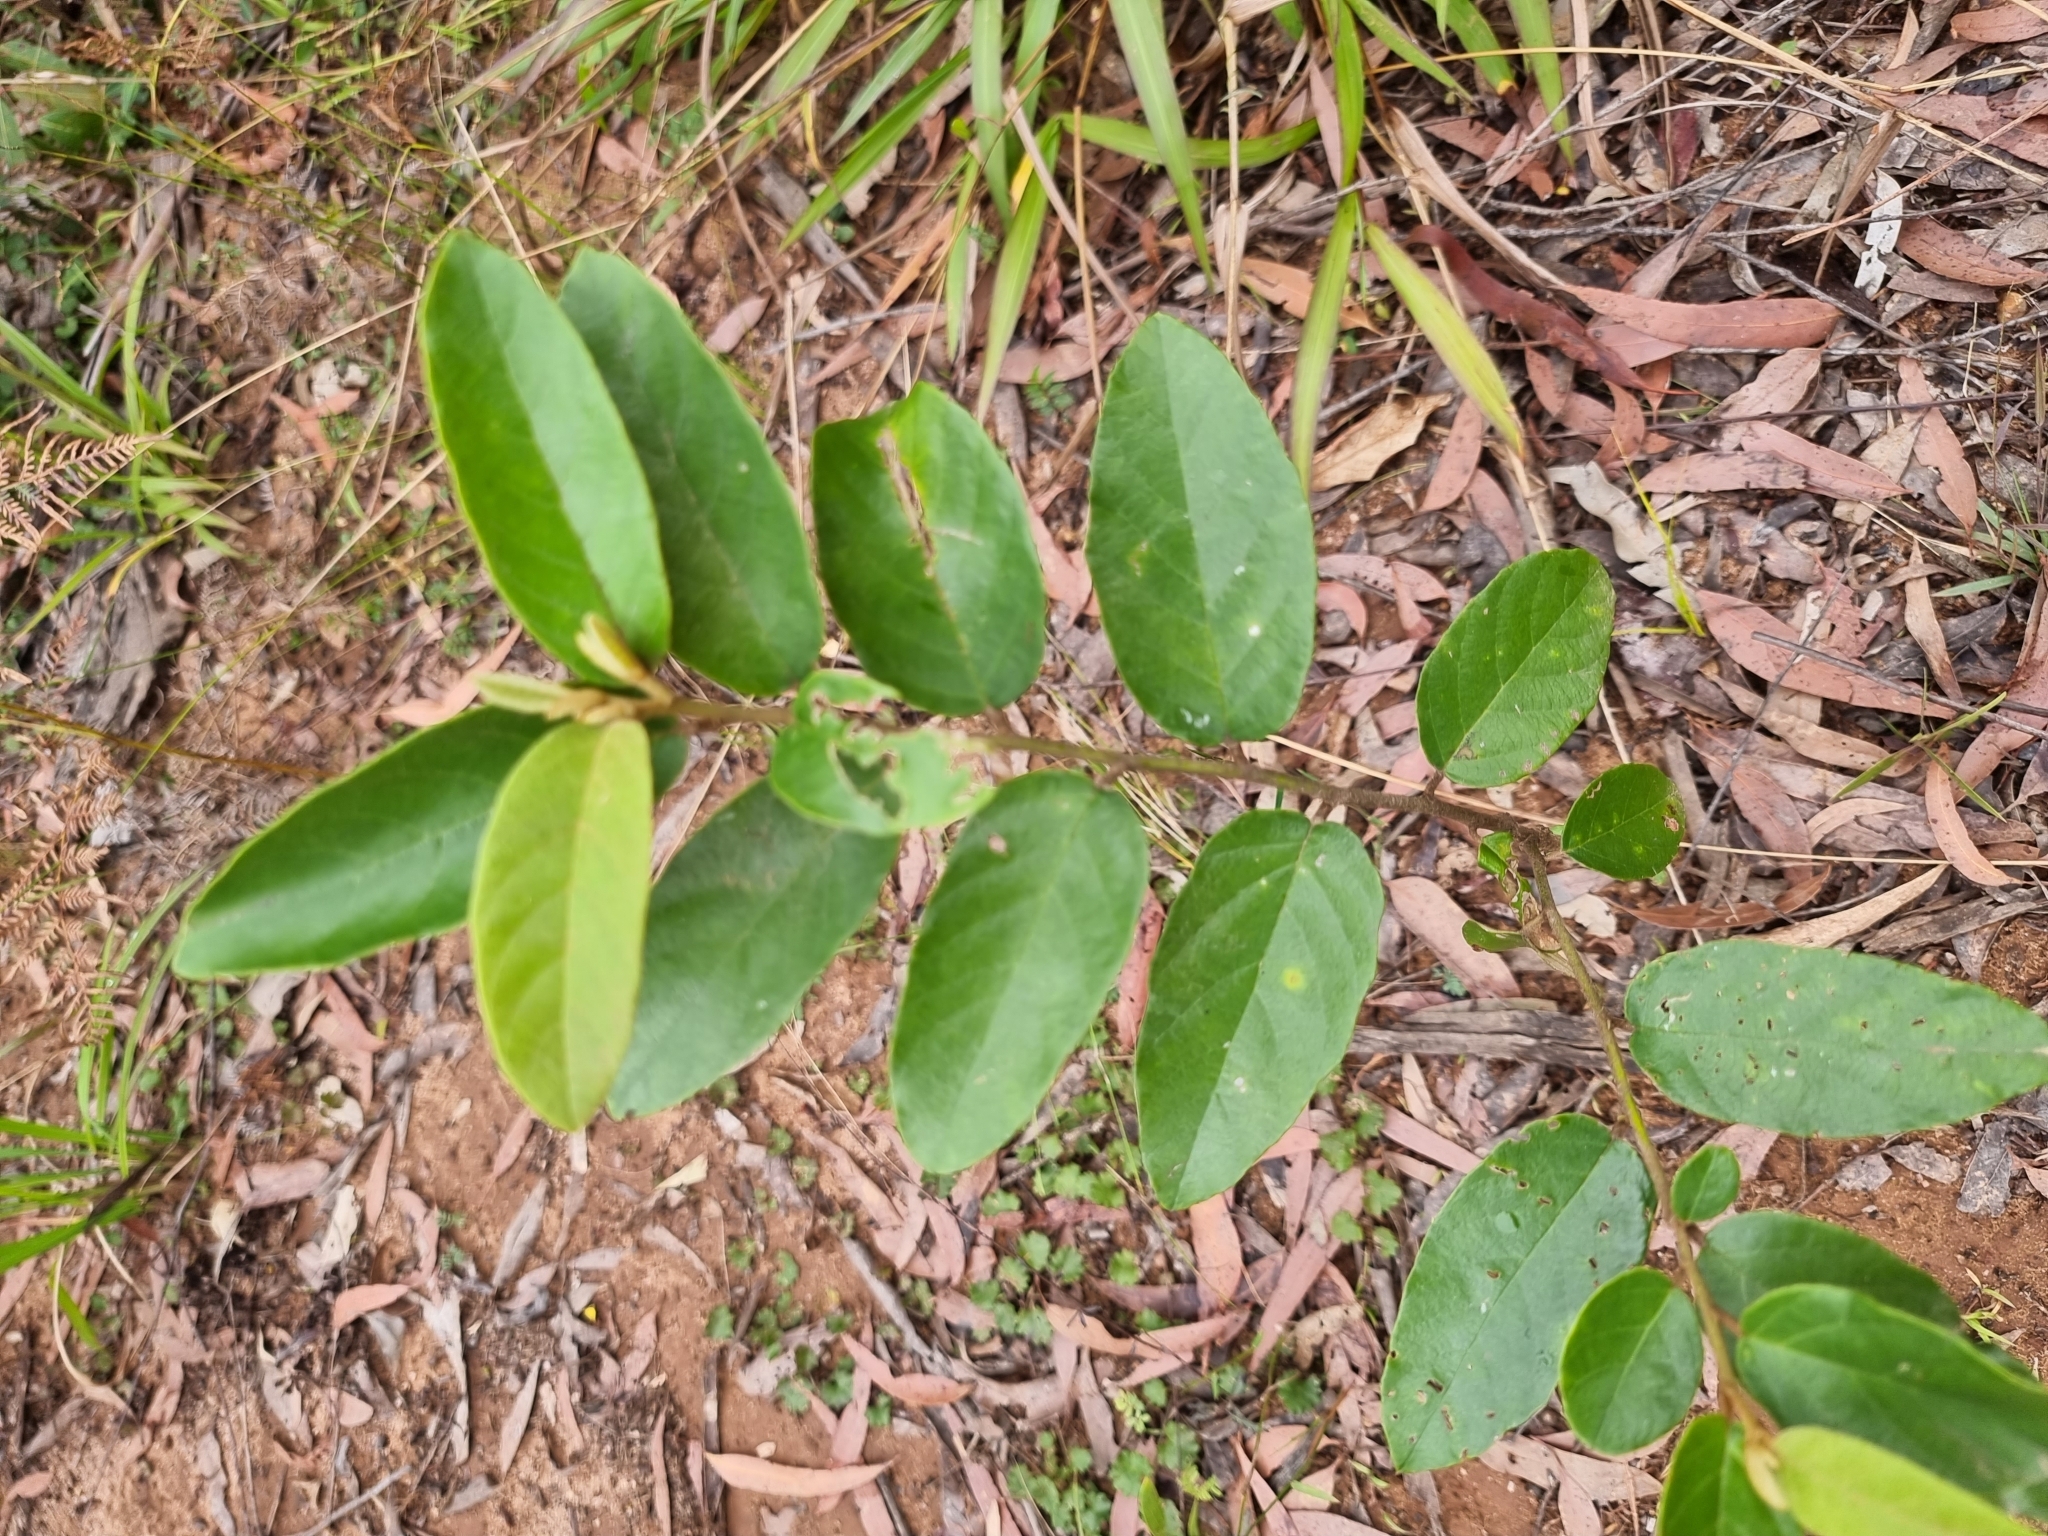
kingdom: Plantae
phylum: Tracheophyta
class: Magnoliopsida
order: Rosales
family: Rhamnaceae
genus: Alphitonia
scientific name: Alphitonia excelsa
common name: Red ash
